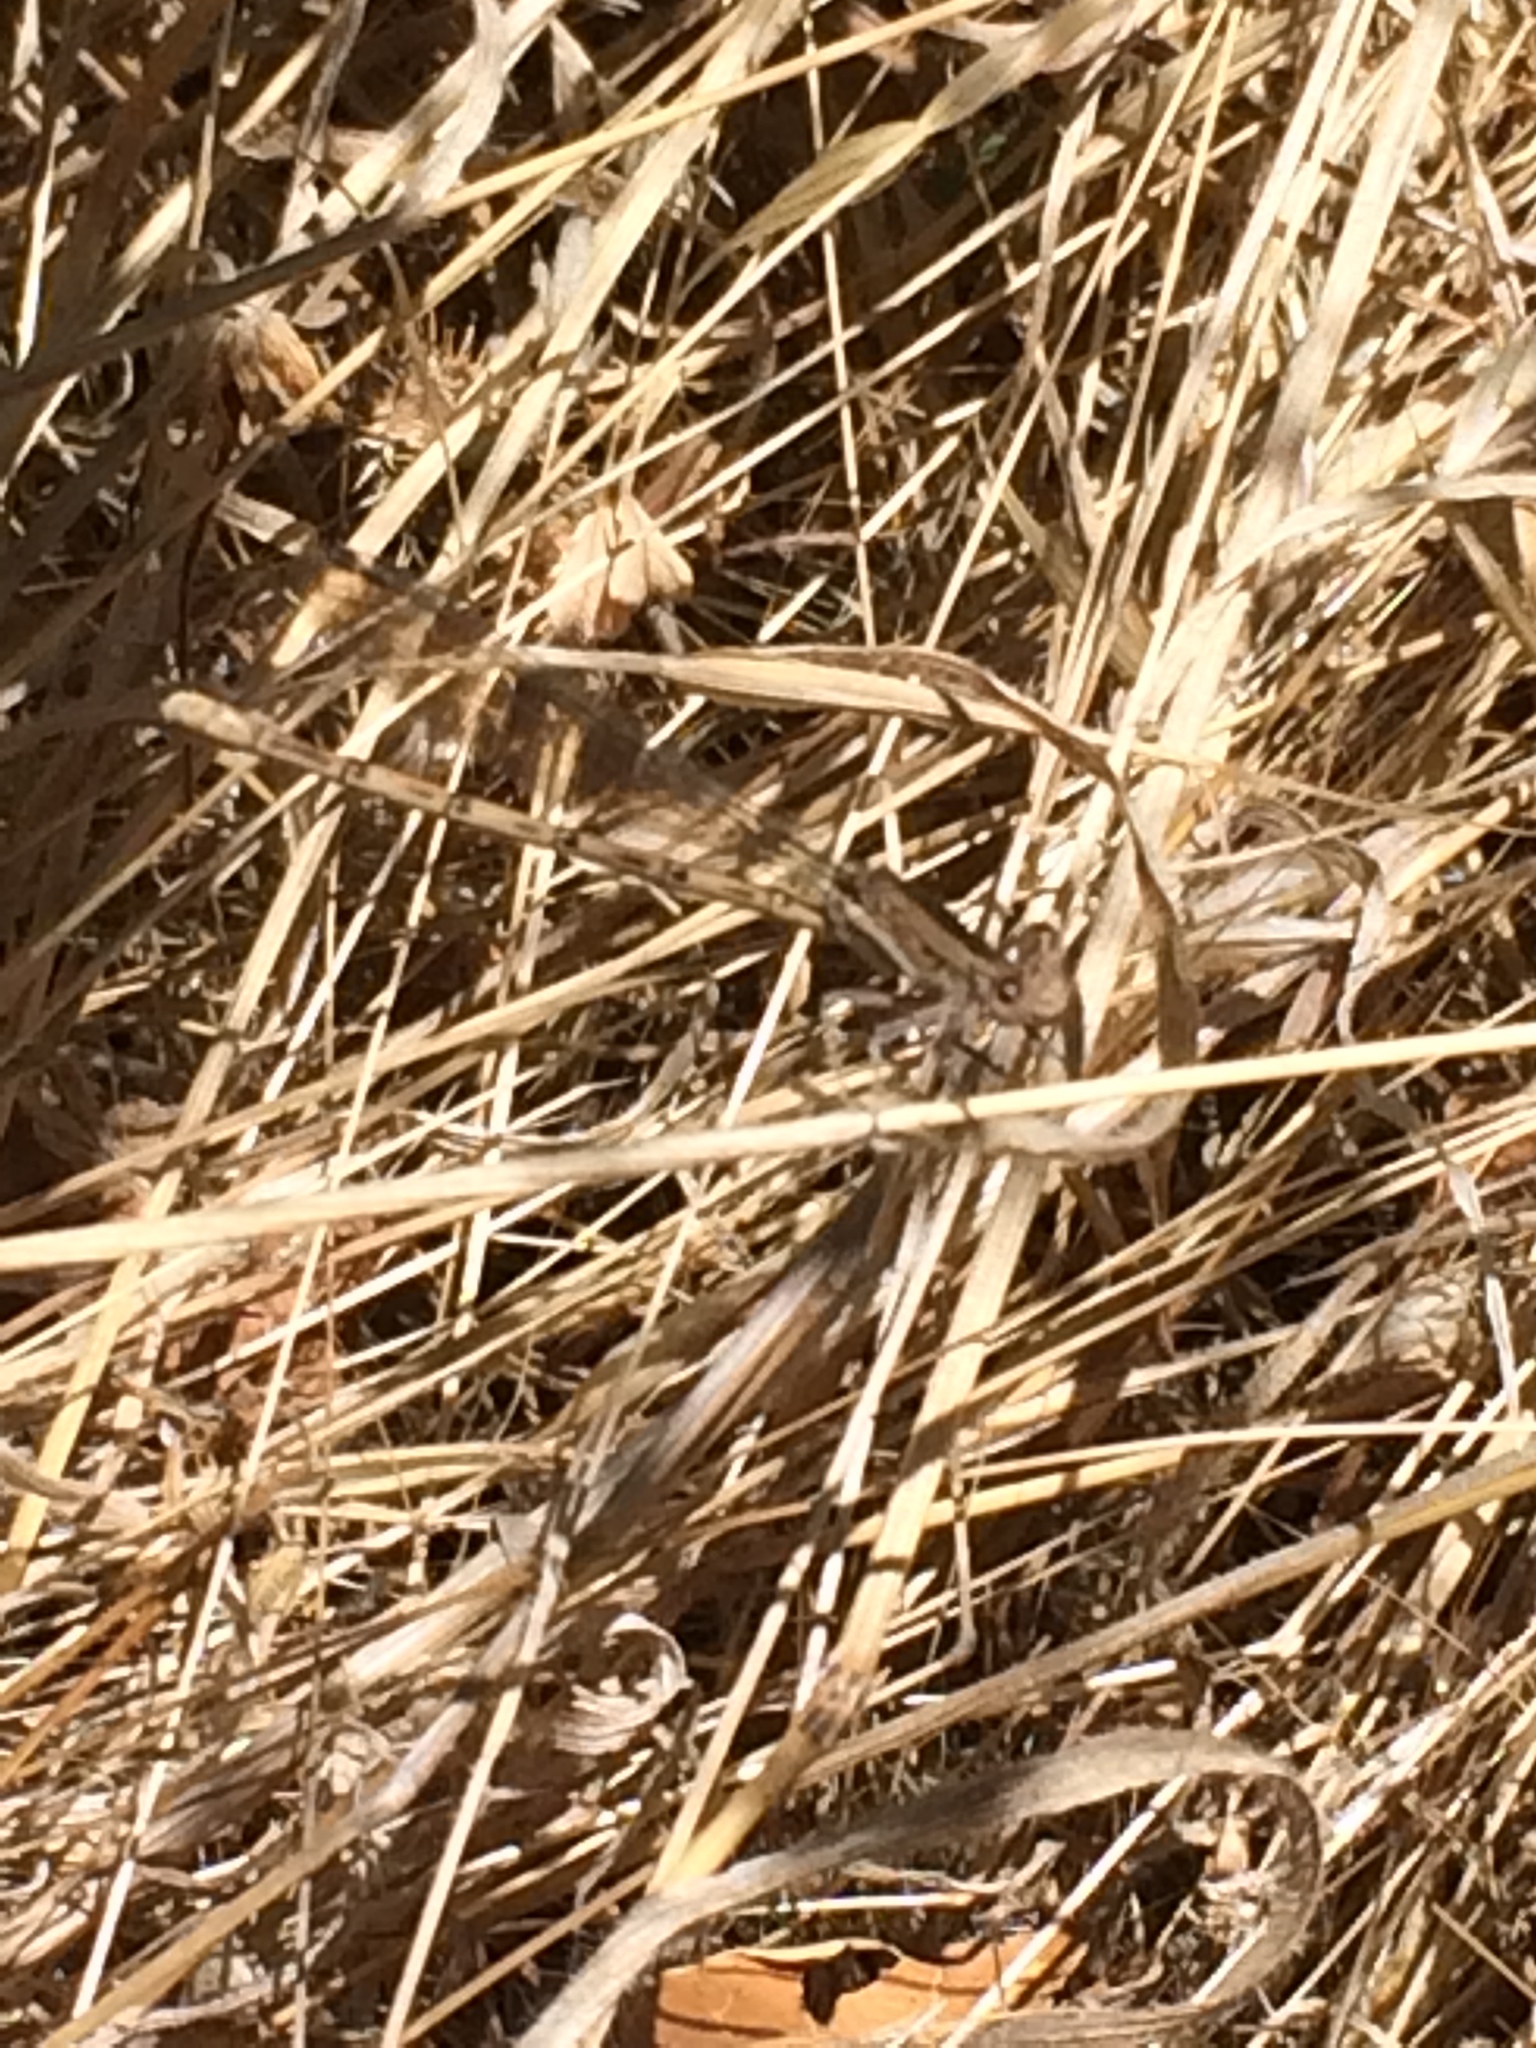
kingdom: Animalia
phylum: Arthropoda
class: Insecta
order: Odonata
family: Coenagrionidae
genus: Argia
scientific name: Argia vivida
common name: Vivid dancer
